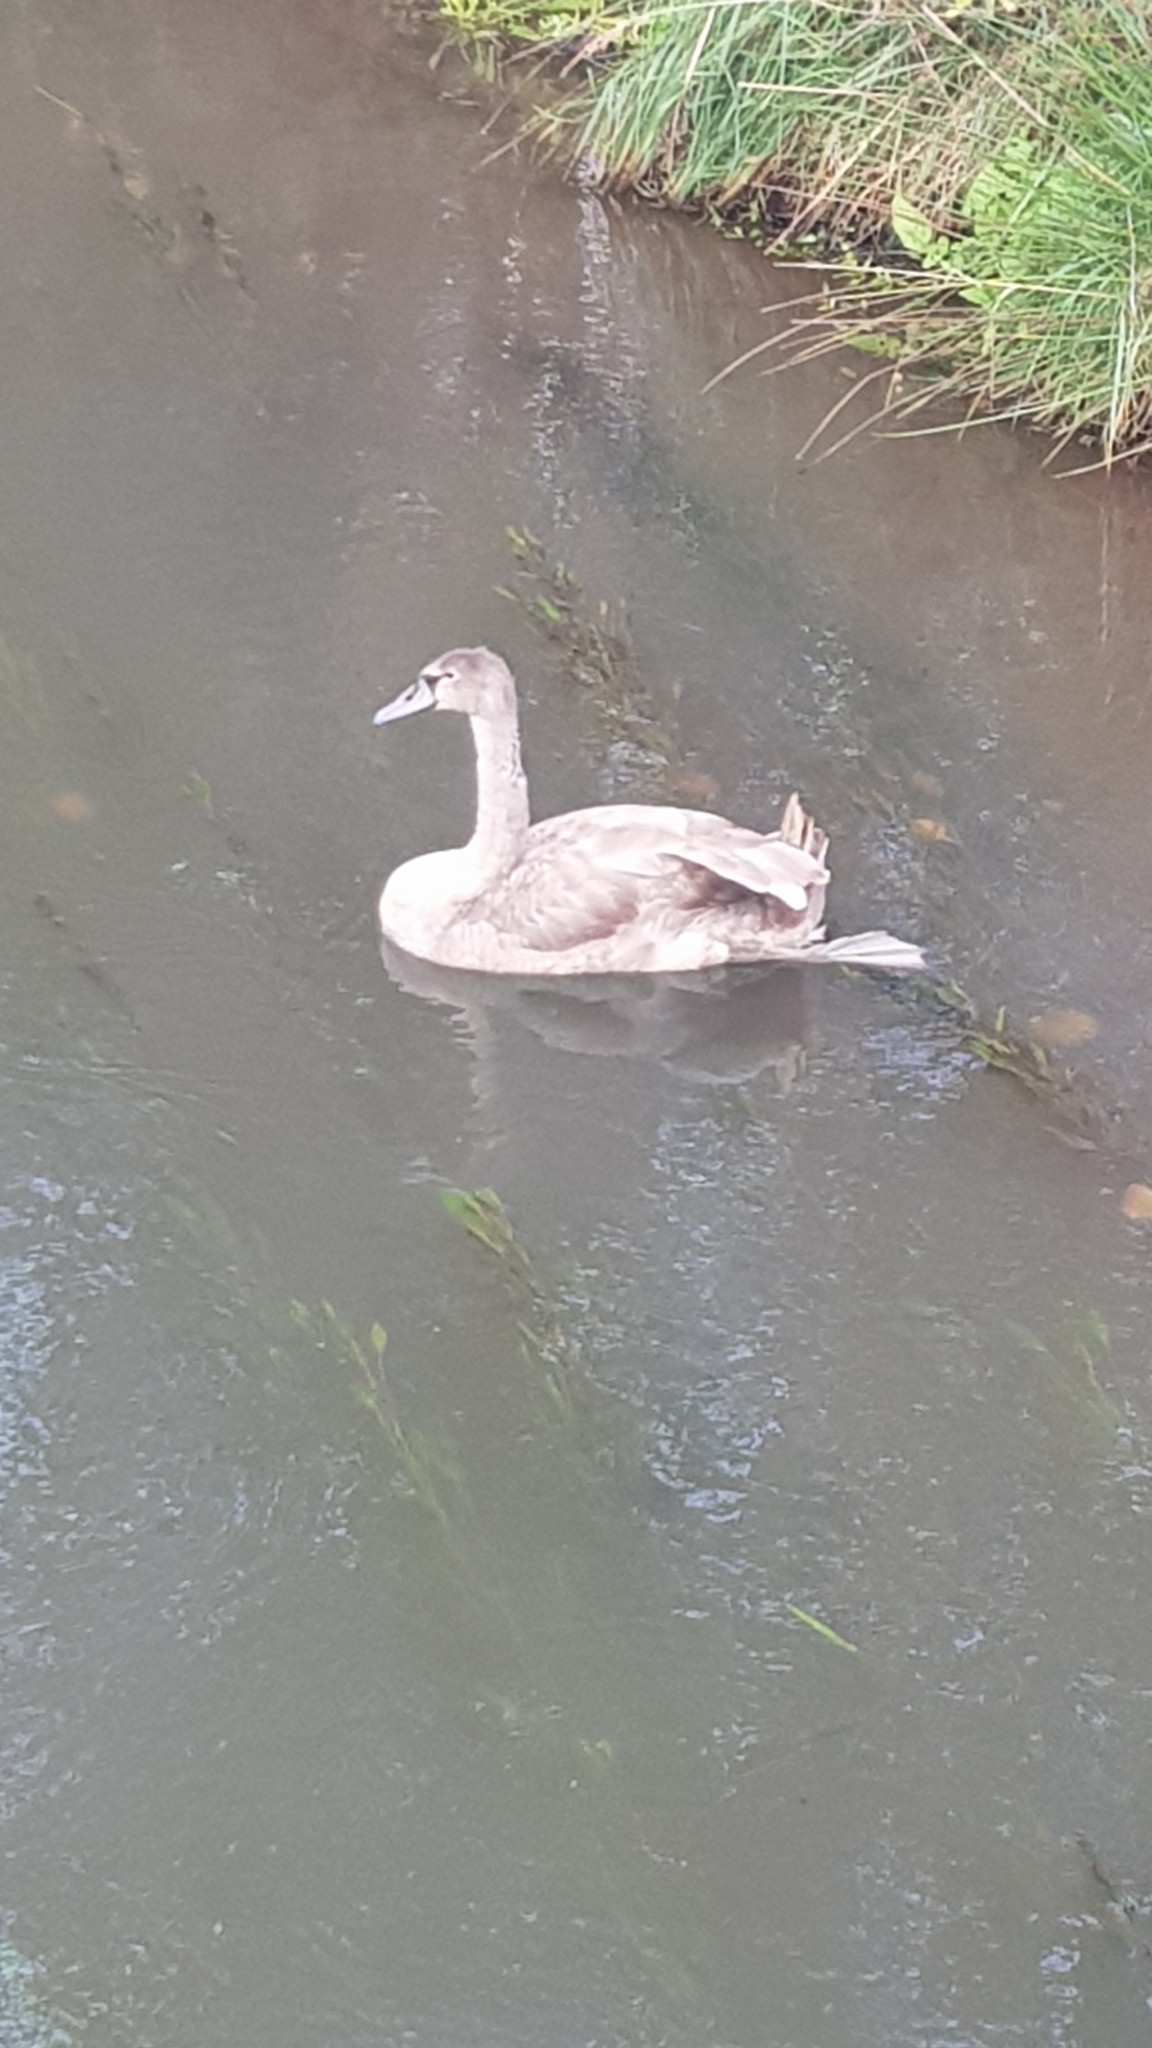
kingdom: Animalia
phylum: Chordata
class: Aves
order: Anseriformes
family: Anatidae
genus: Cygnus
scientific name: Cygnus olor
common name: Mute swan
